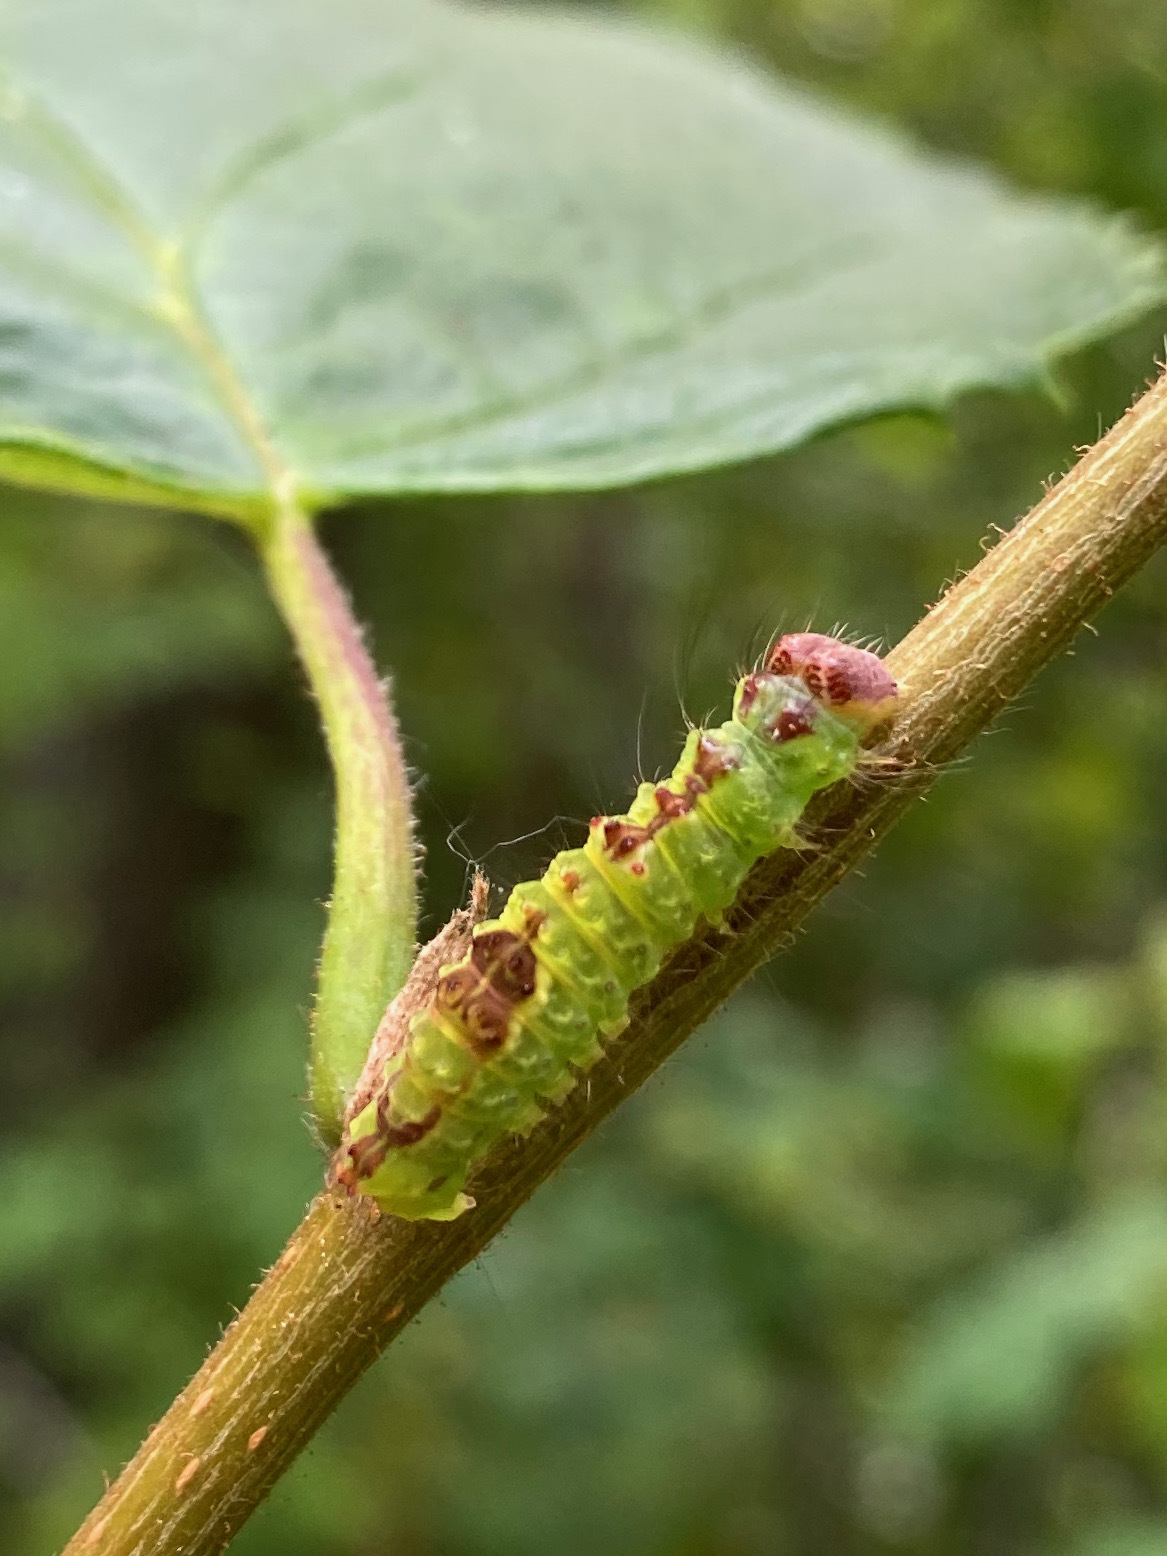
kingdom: Animalia
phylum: Arthropoda
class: Insecta
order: Lepidoptera
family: Noctuidae
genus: Acronicta
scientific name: Acronicta grisea
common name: Gray dagger
